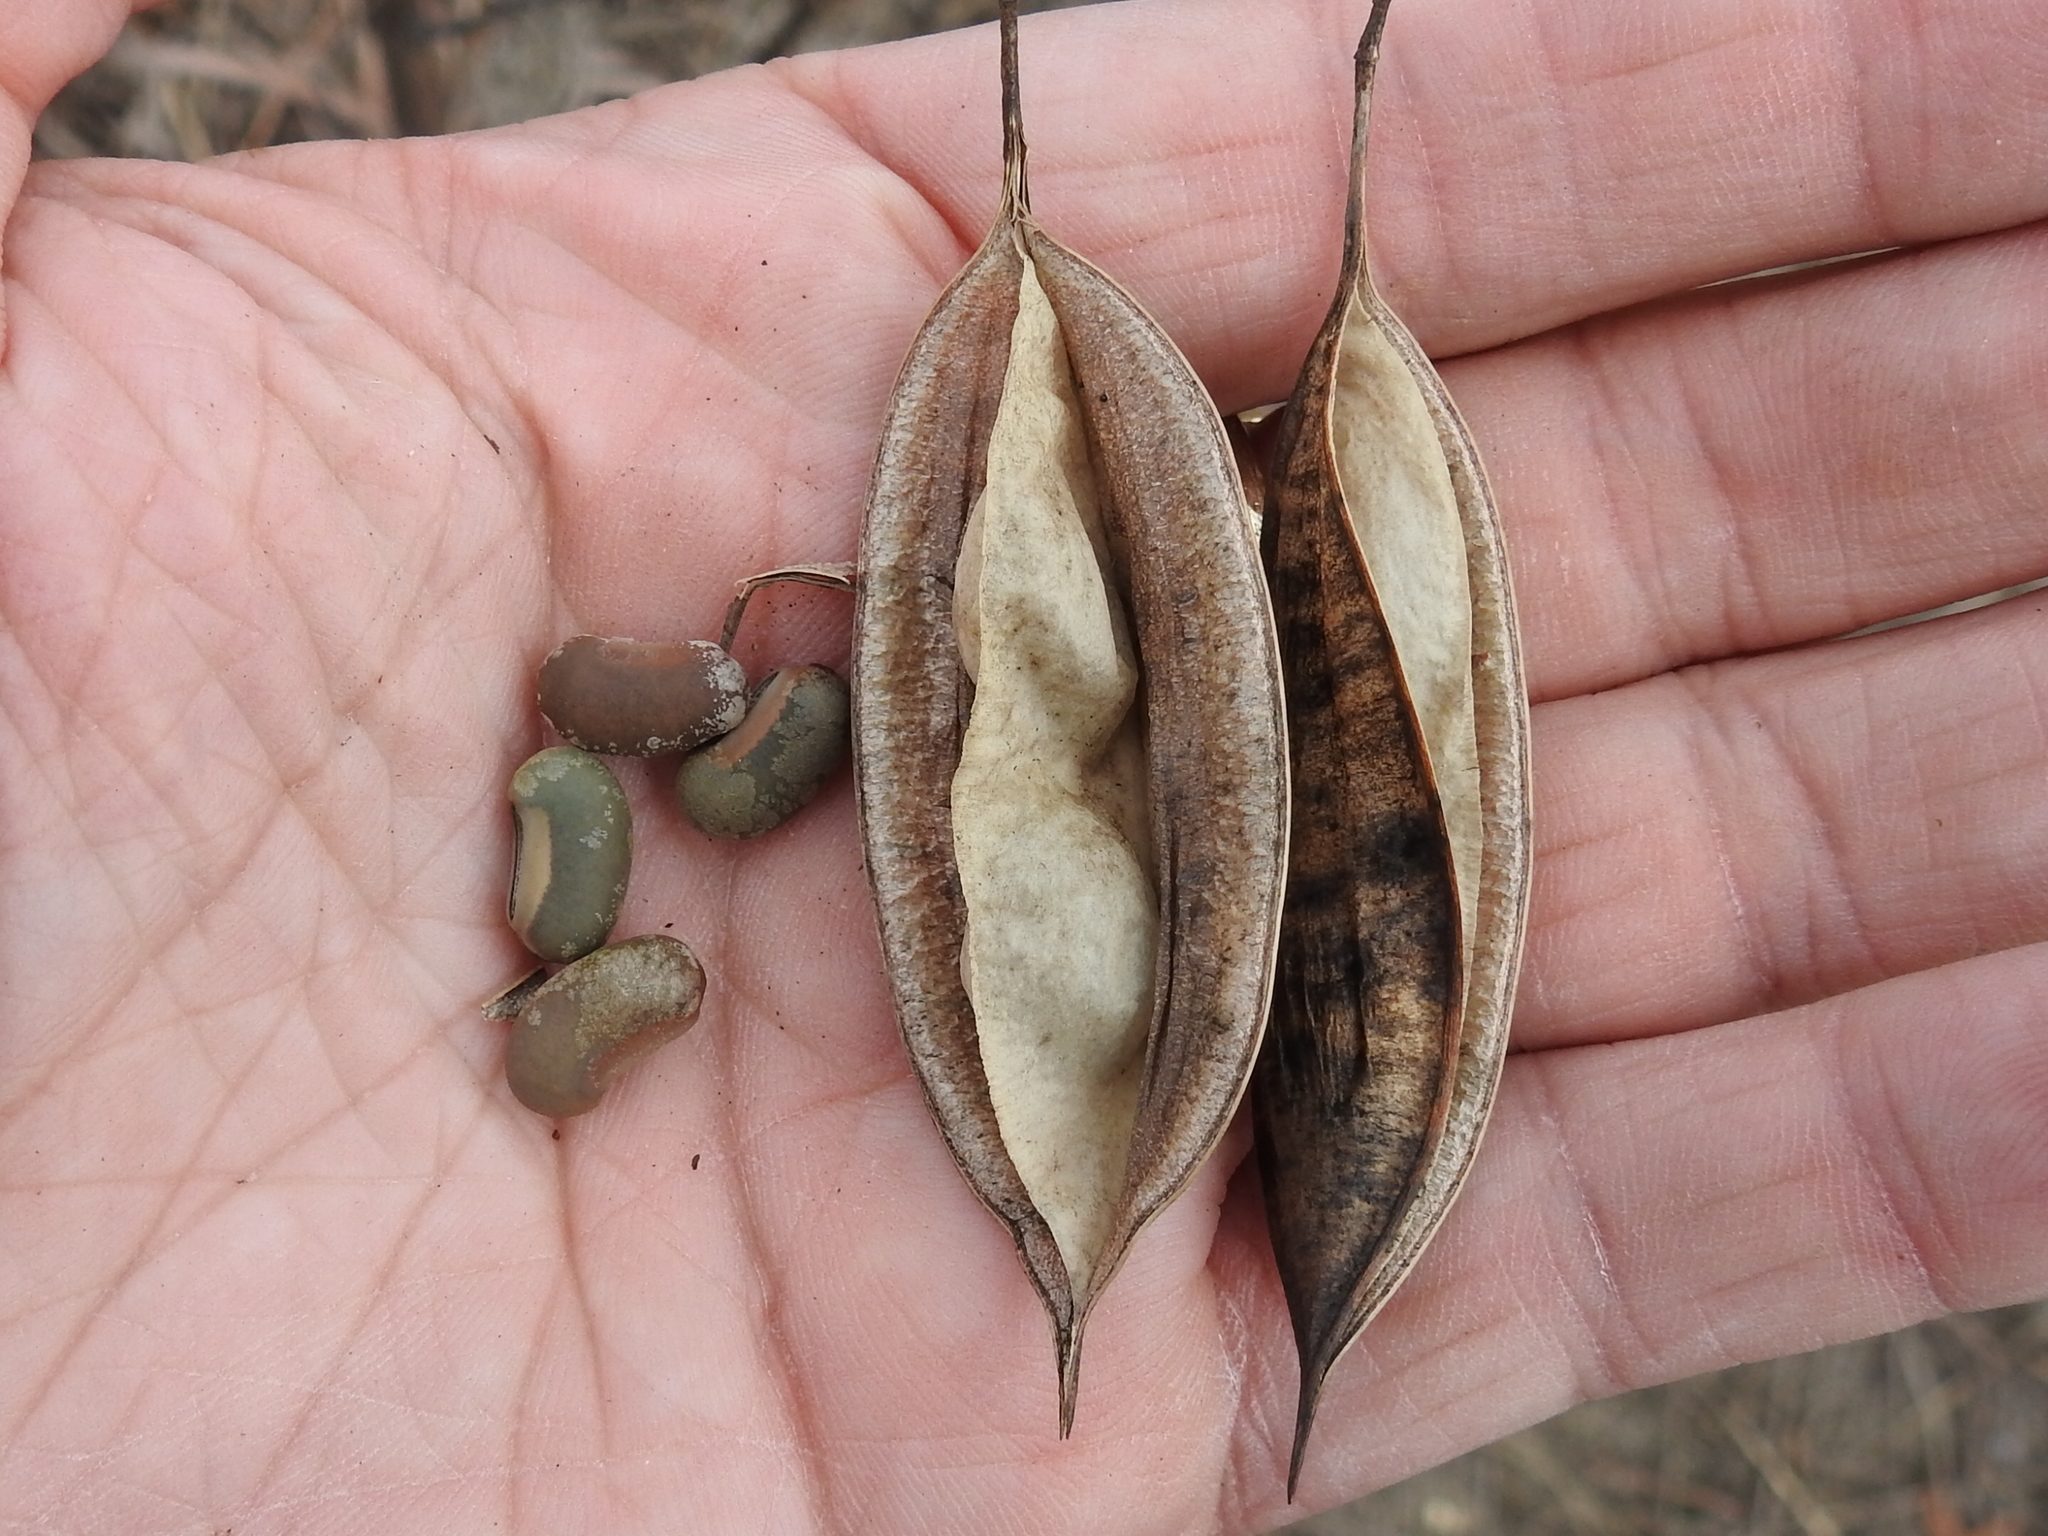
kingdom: Plantae
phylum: Tracheophyta
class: Magnoliopsida
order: Fabales
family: Fabaceae
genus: Sesbania
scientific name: Sesbania vesicaria
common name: Bagpod
